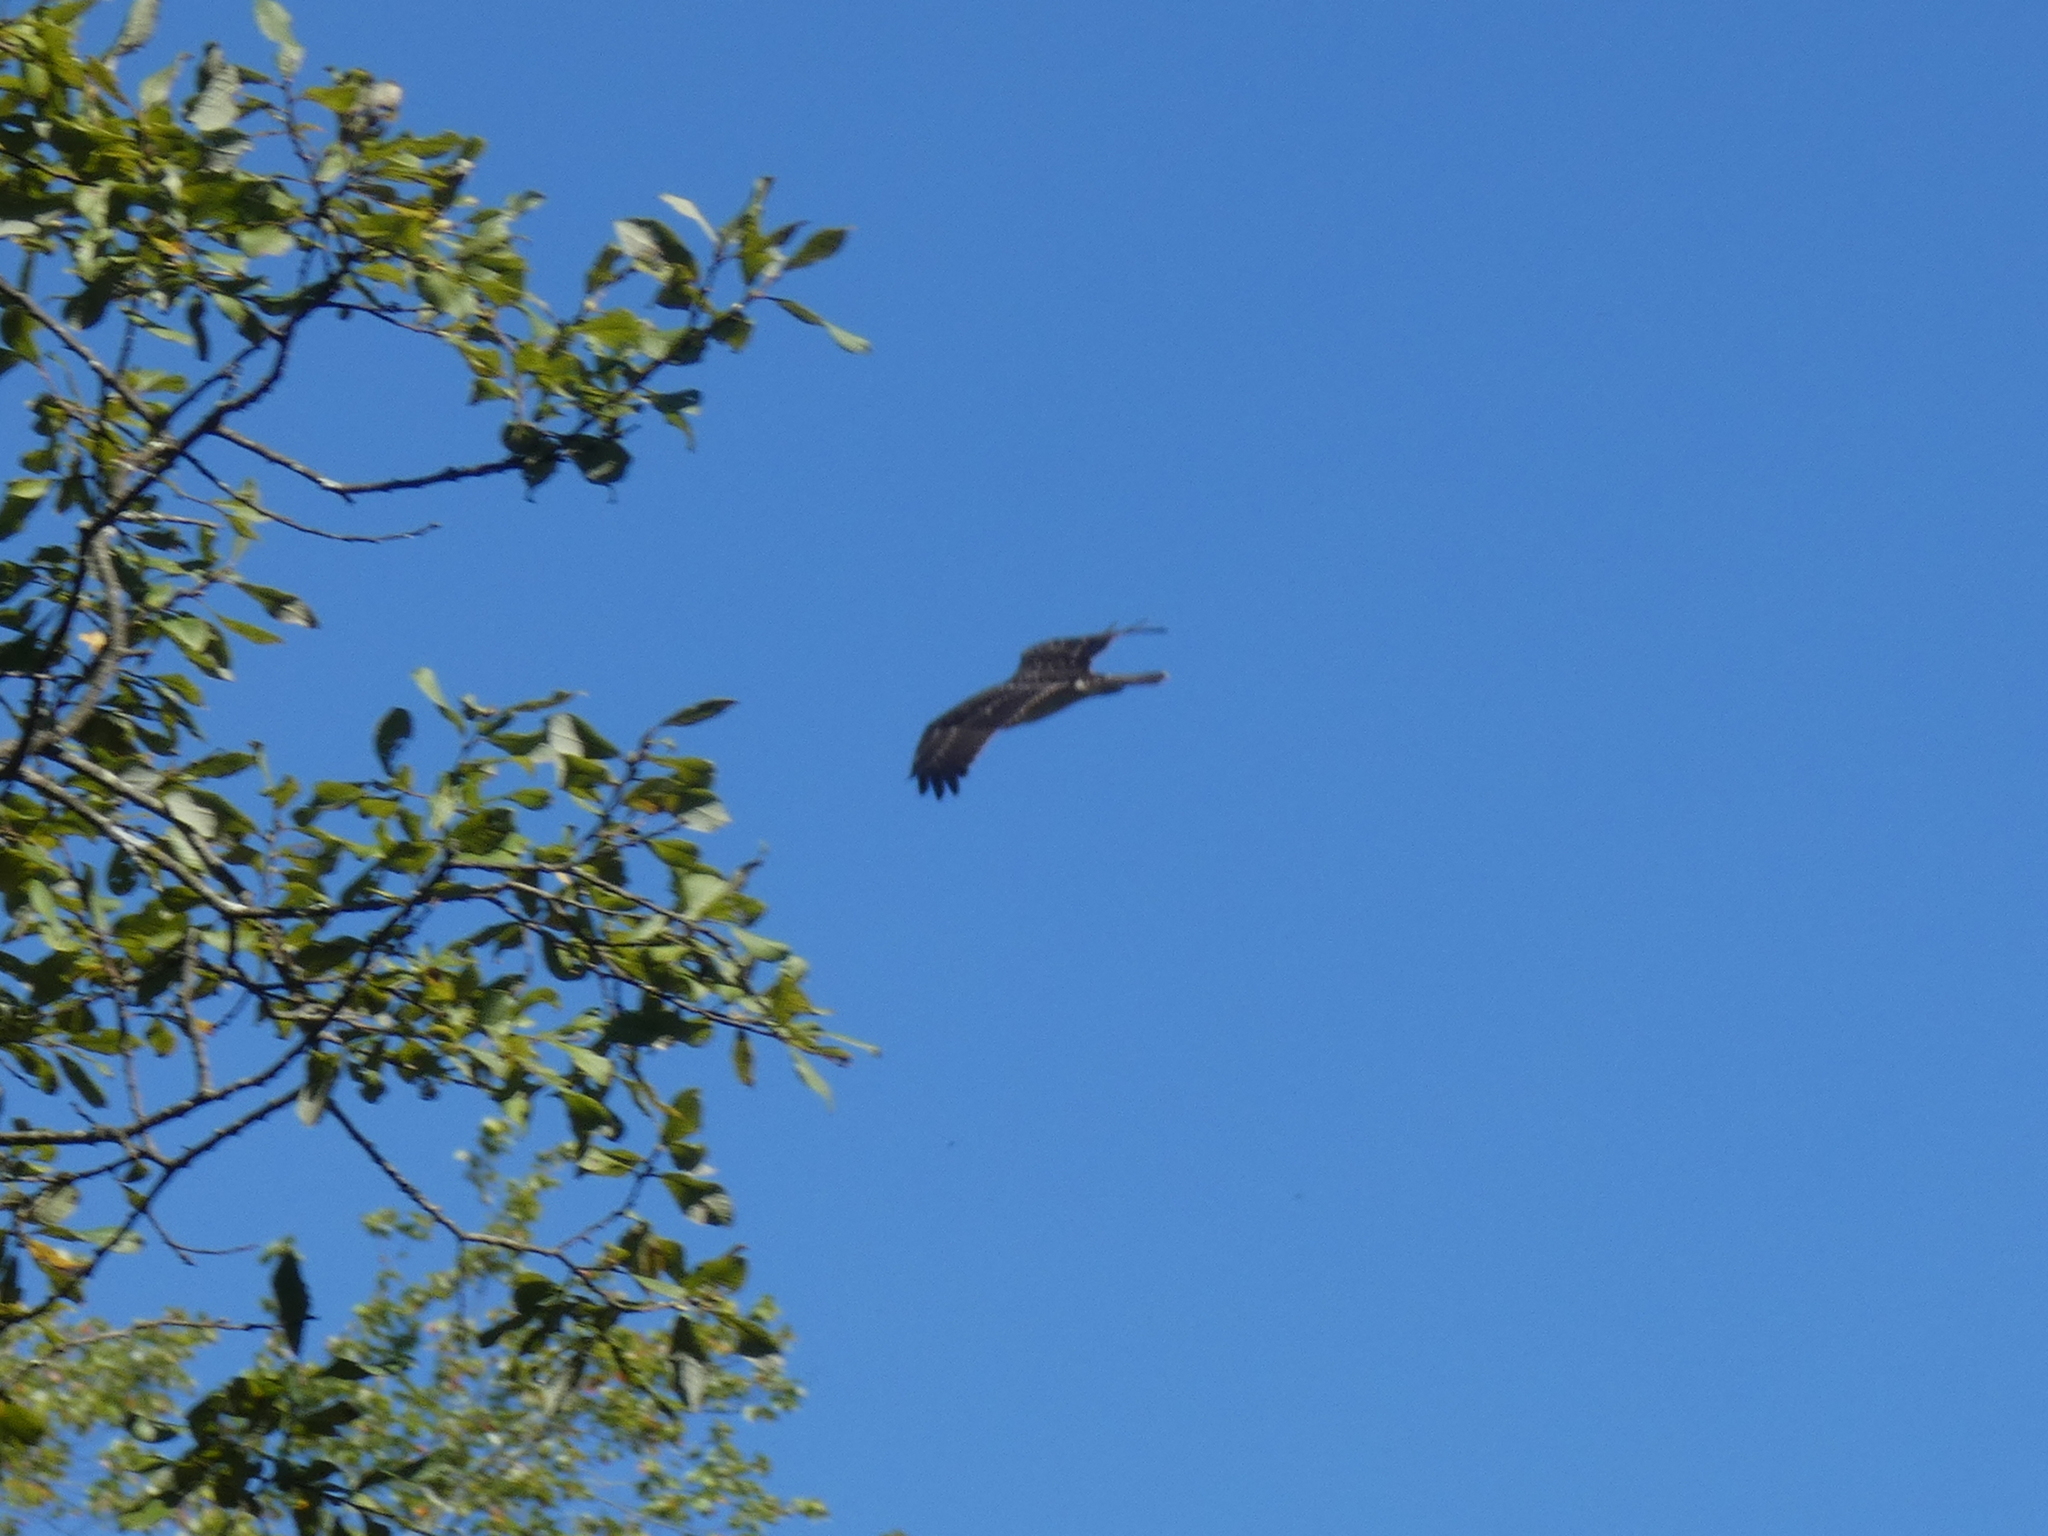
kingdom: Animalia
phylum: Chordata
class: Aves
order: Accipitriformes
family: Pandionidae
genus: Pandion
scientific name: Pandion haliaetus
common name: Osprey
